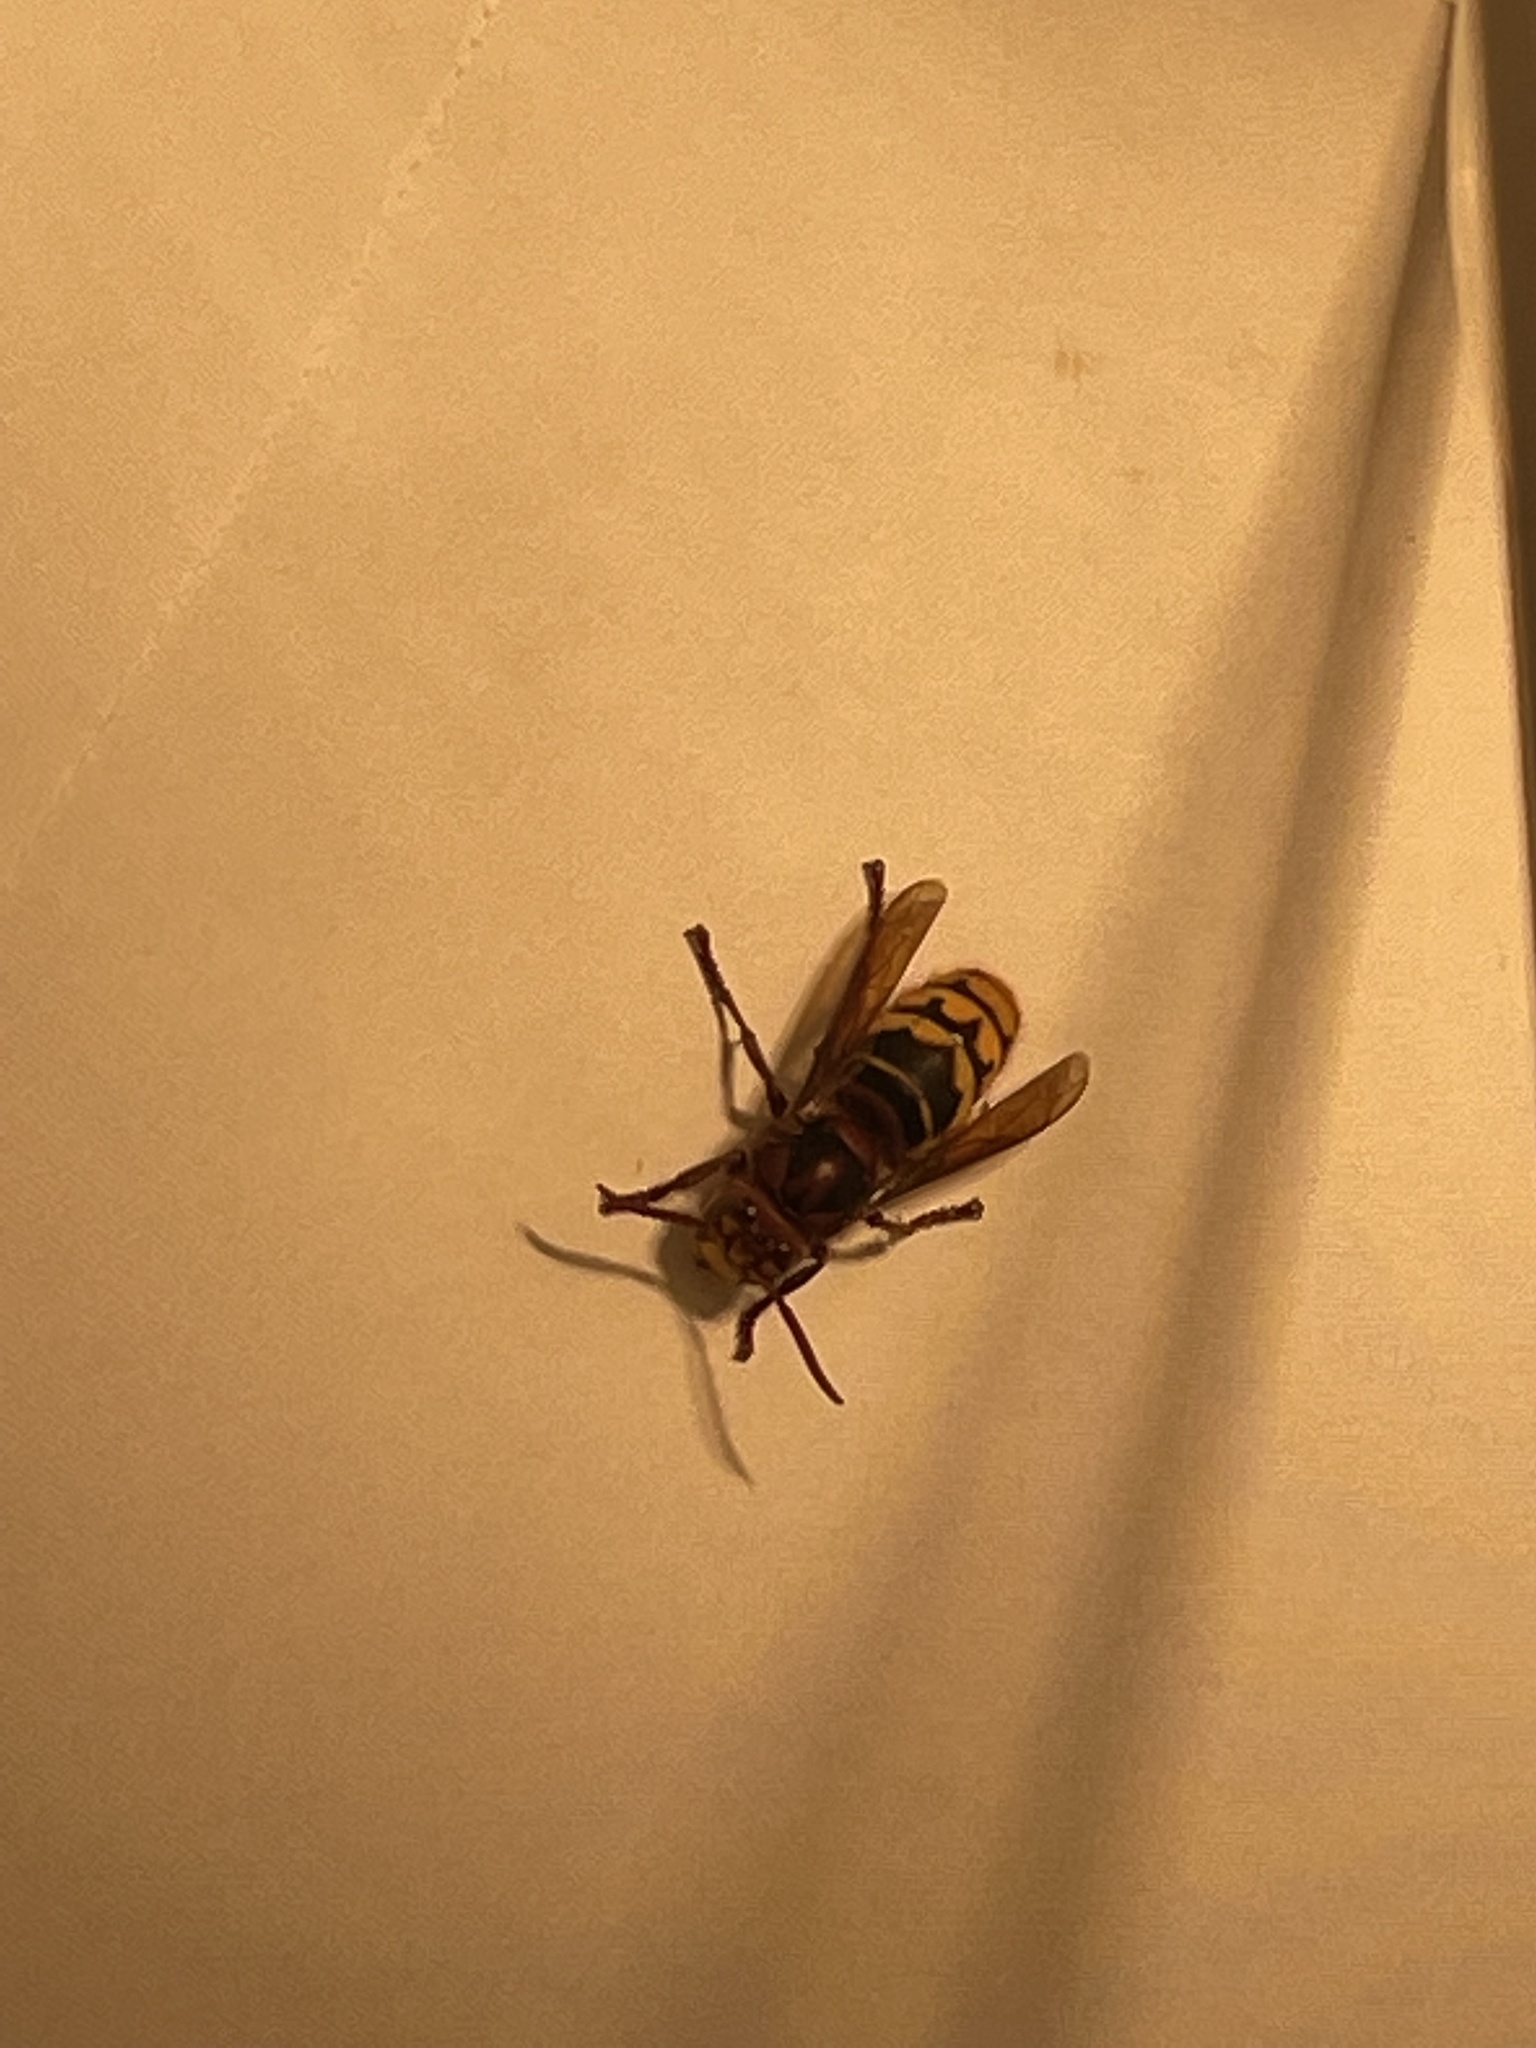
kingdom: Animalia
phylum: Arthropoda
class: Insecta
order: Hymenoptera
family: Vespidae
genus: Vespa
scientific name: Vespa crabro
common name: Hornet
